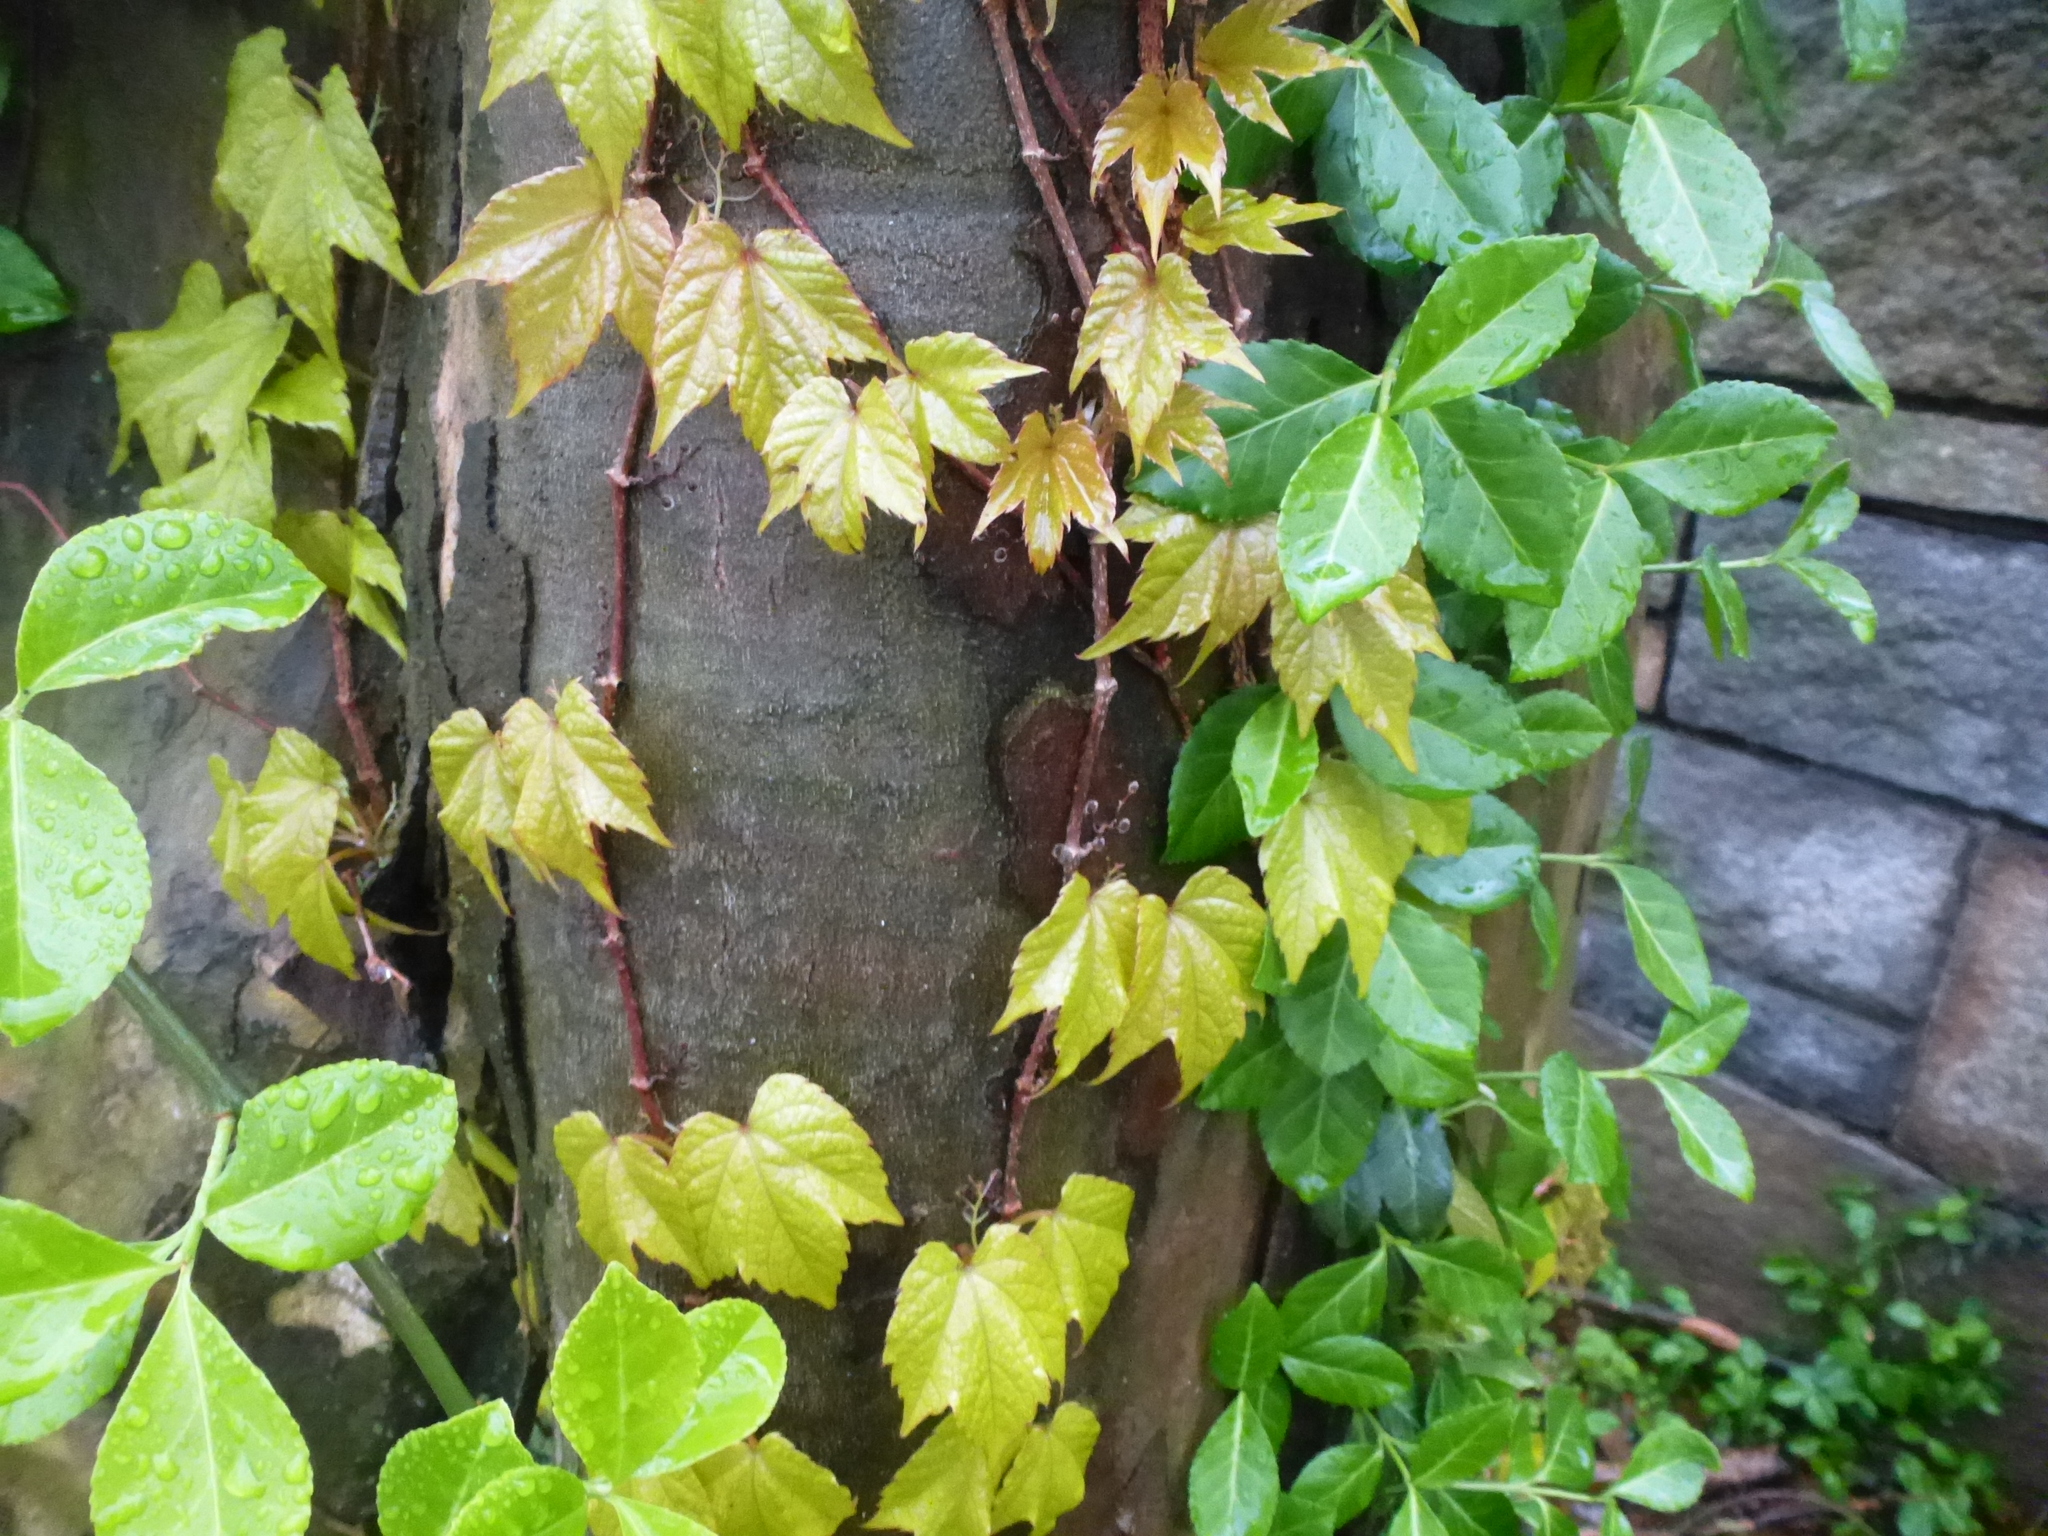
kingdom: Plantae
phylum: Tracheophyta
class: Magnoliopsida
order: Vitales
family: Vitaceae
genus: Parthenocissus
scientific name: Parthenocissus tricuspidata
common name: Boston ivy
